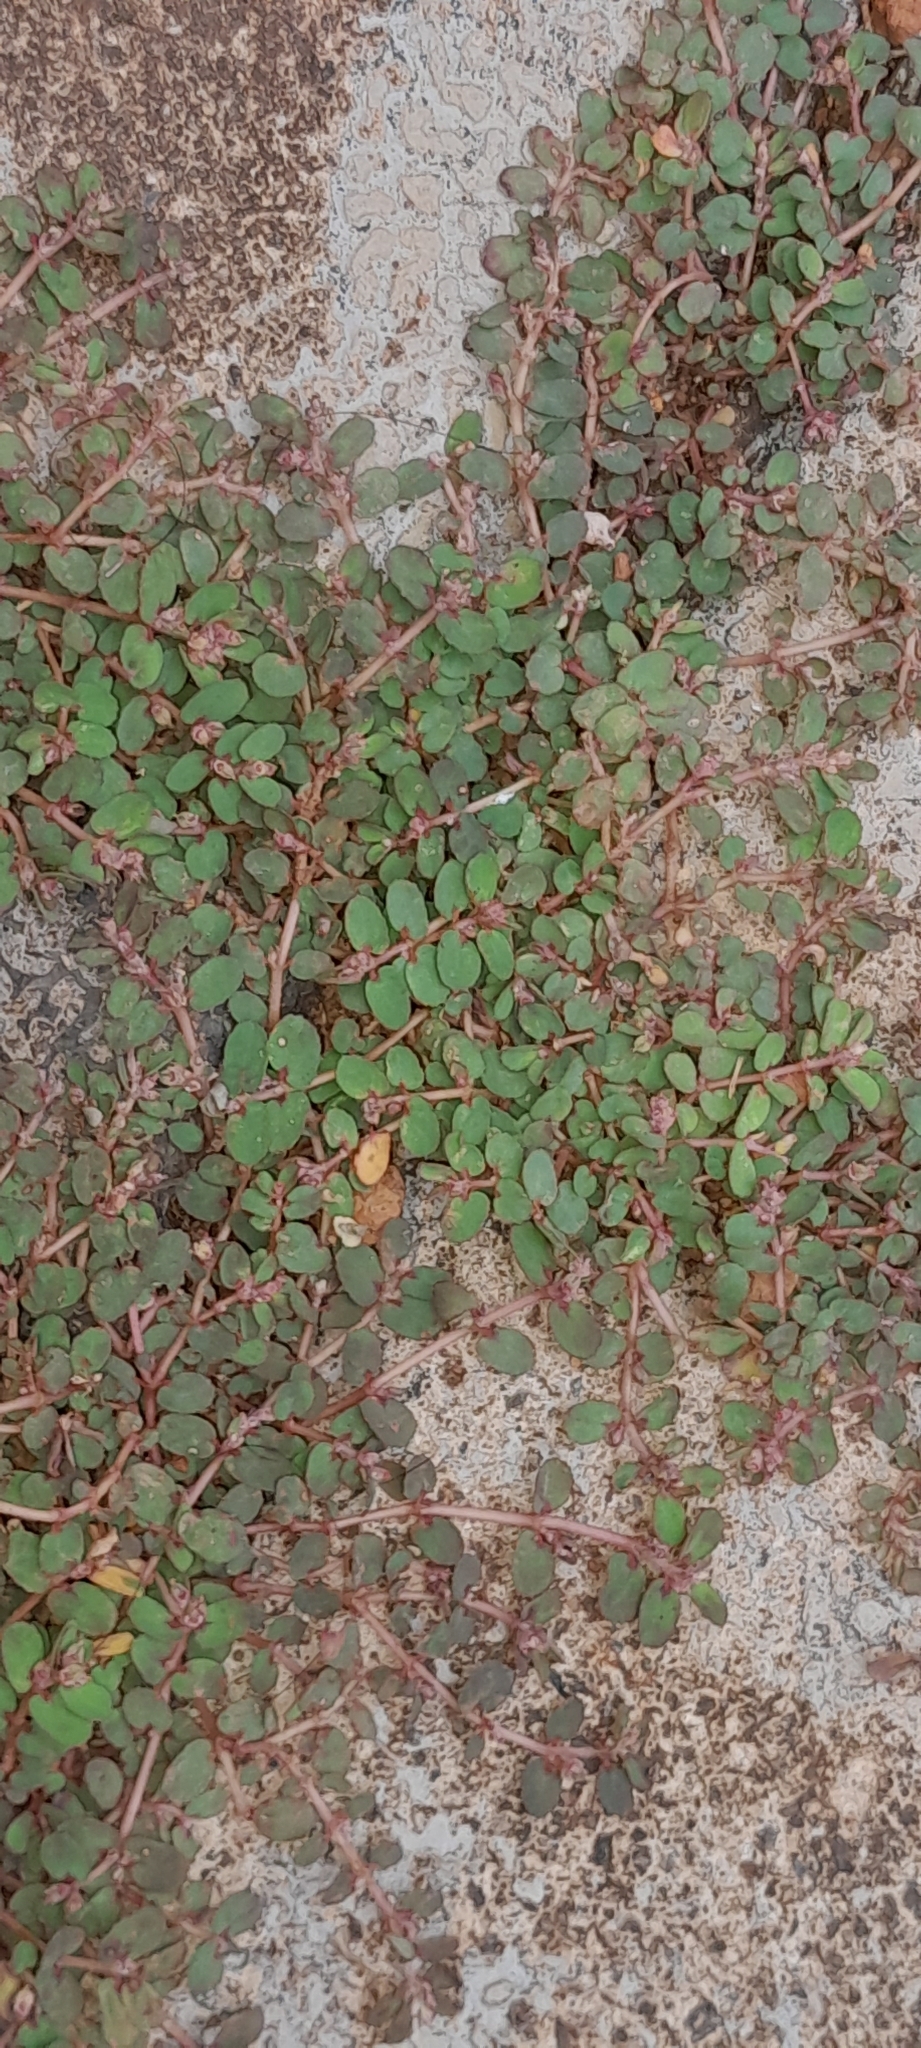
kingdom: Plantae
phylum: Tracheophyta
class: Magnoliopsida
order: Malpighiales
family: Euphorbiaceae
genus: Euphorbia
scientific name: Euphorbia thymifolia
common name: Gulf sandmat
